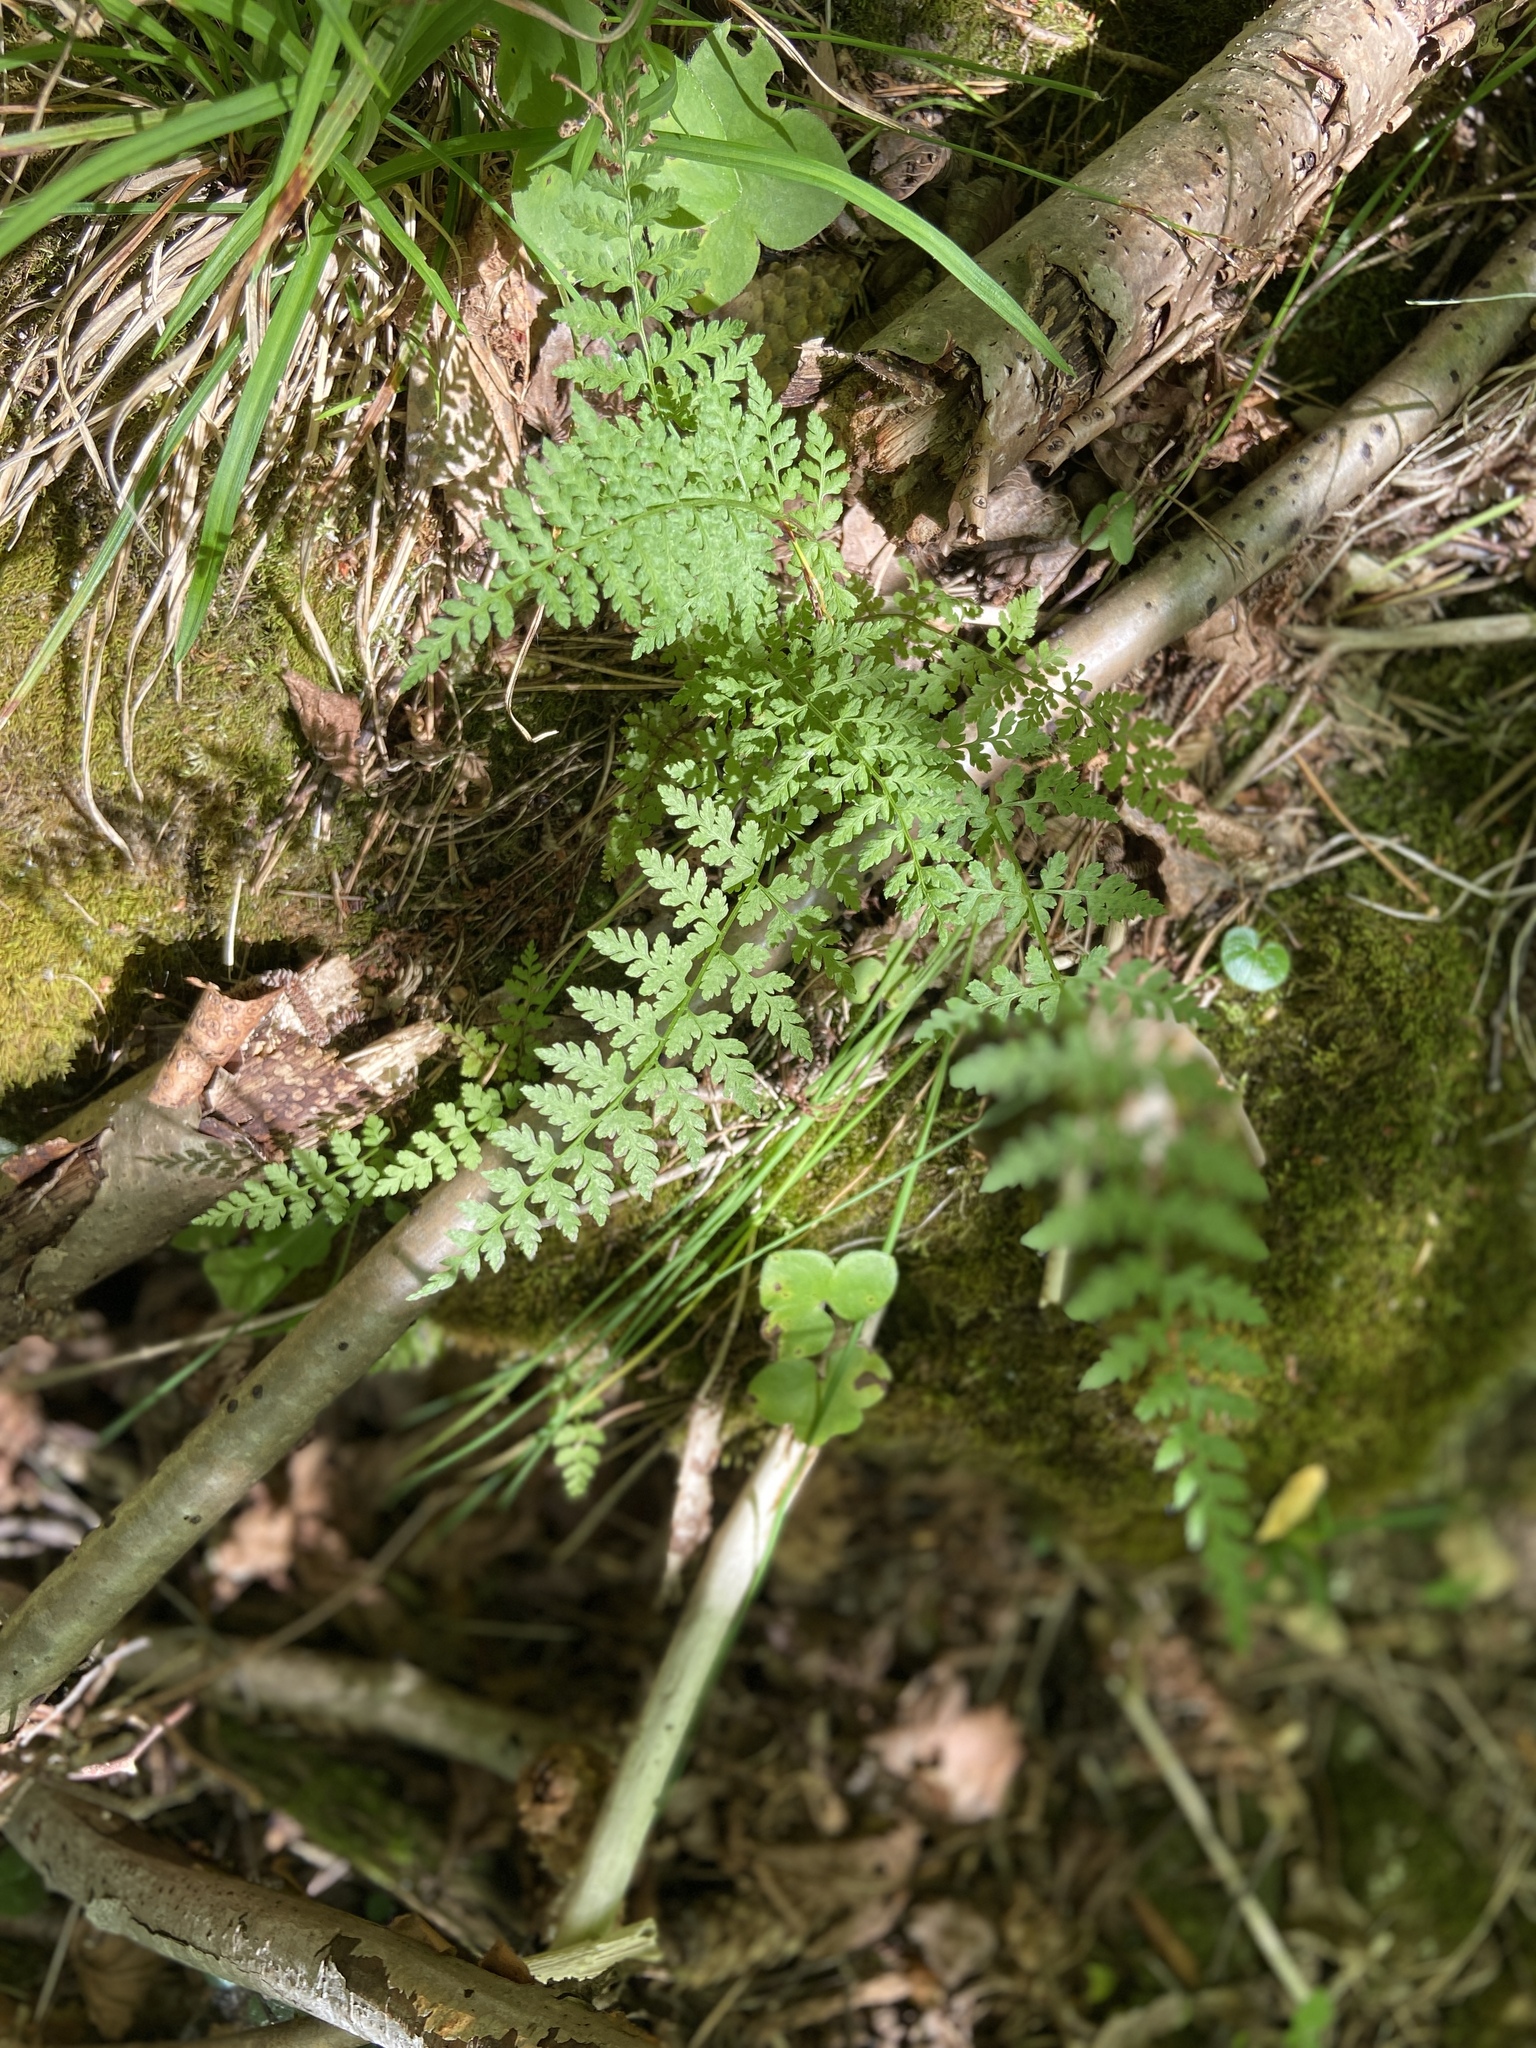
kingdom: Plantae
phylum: Tracheophyta
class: Polypodiopsida
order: Polypodiales
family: Cystopteridaceae
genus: Cystopteris
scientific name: Cystopteris fragilis
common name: Brittle bladder fern
